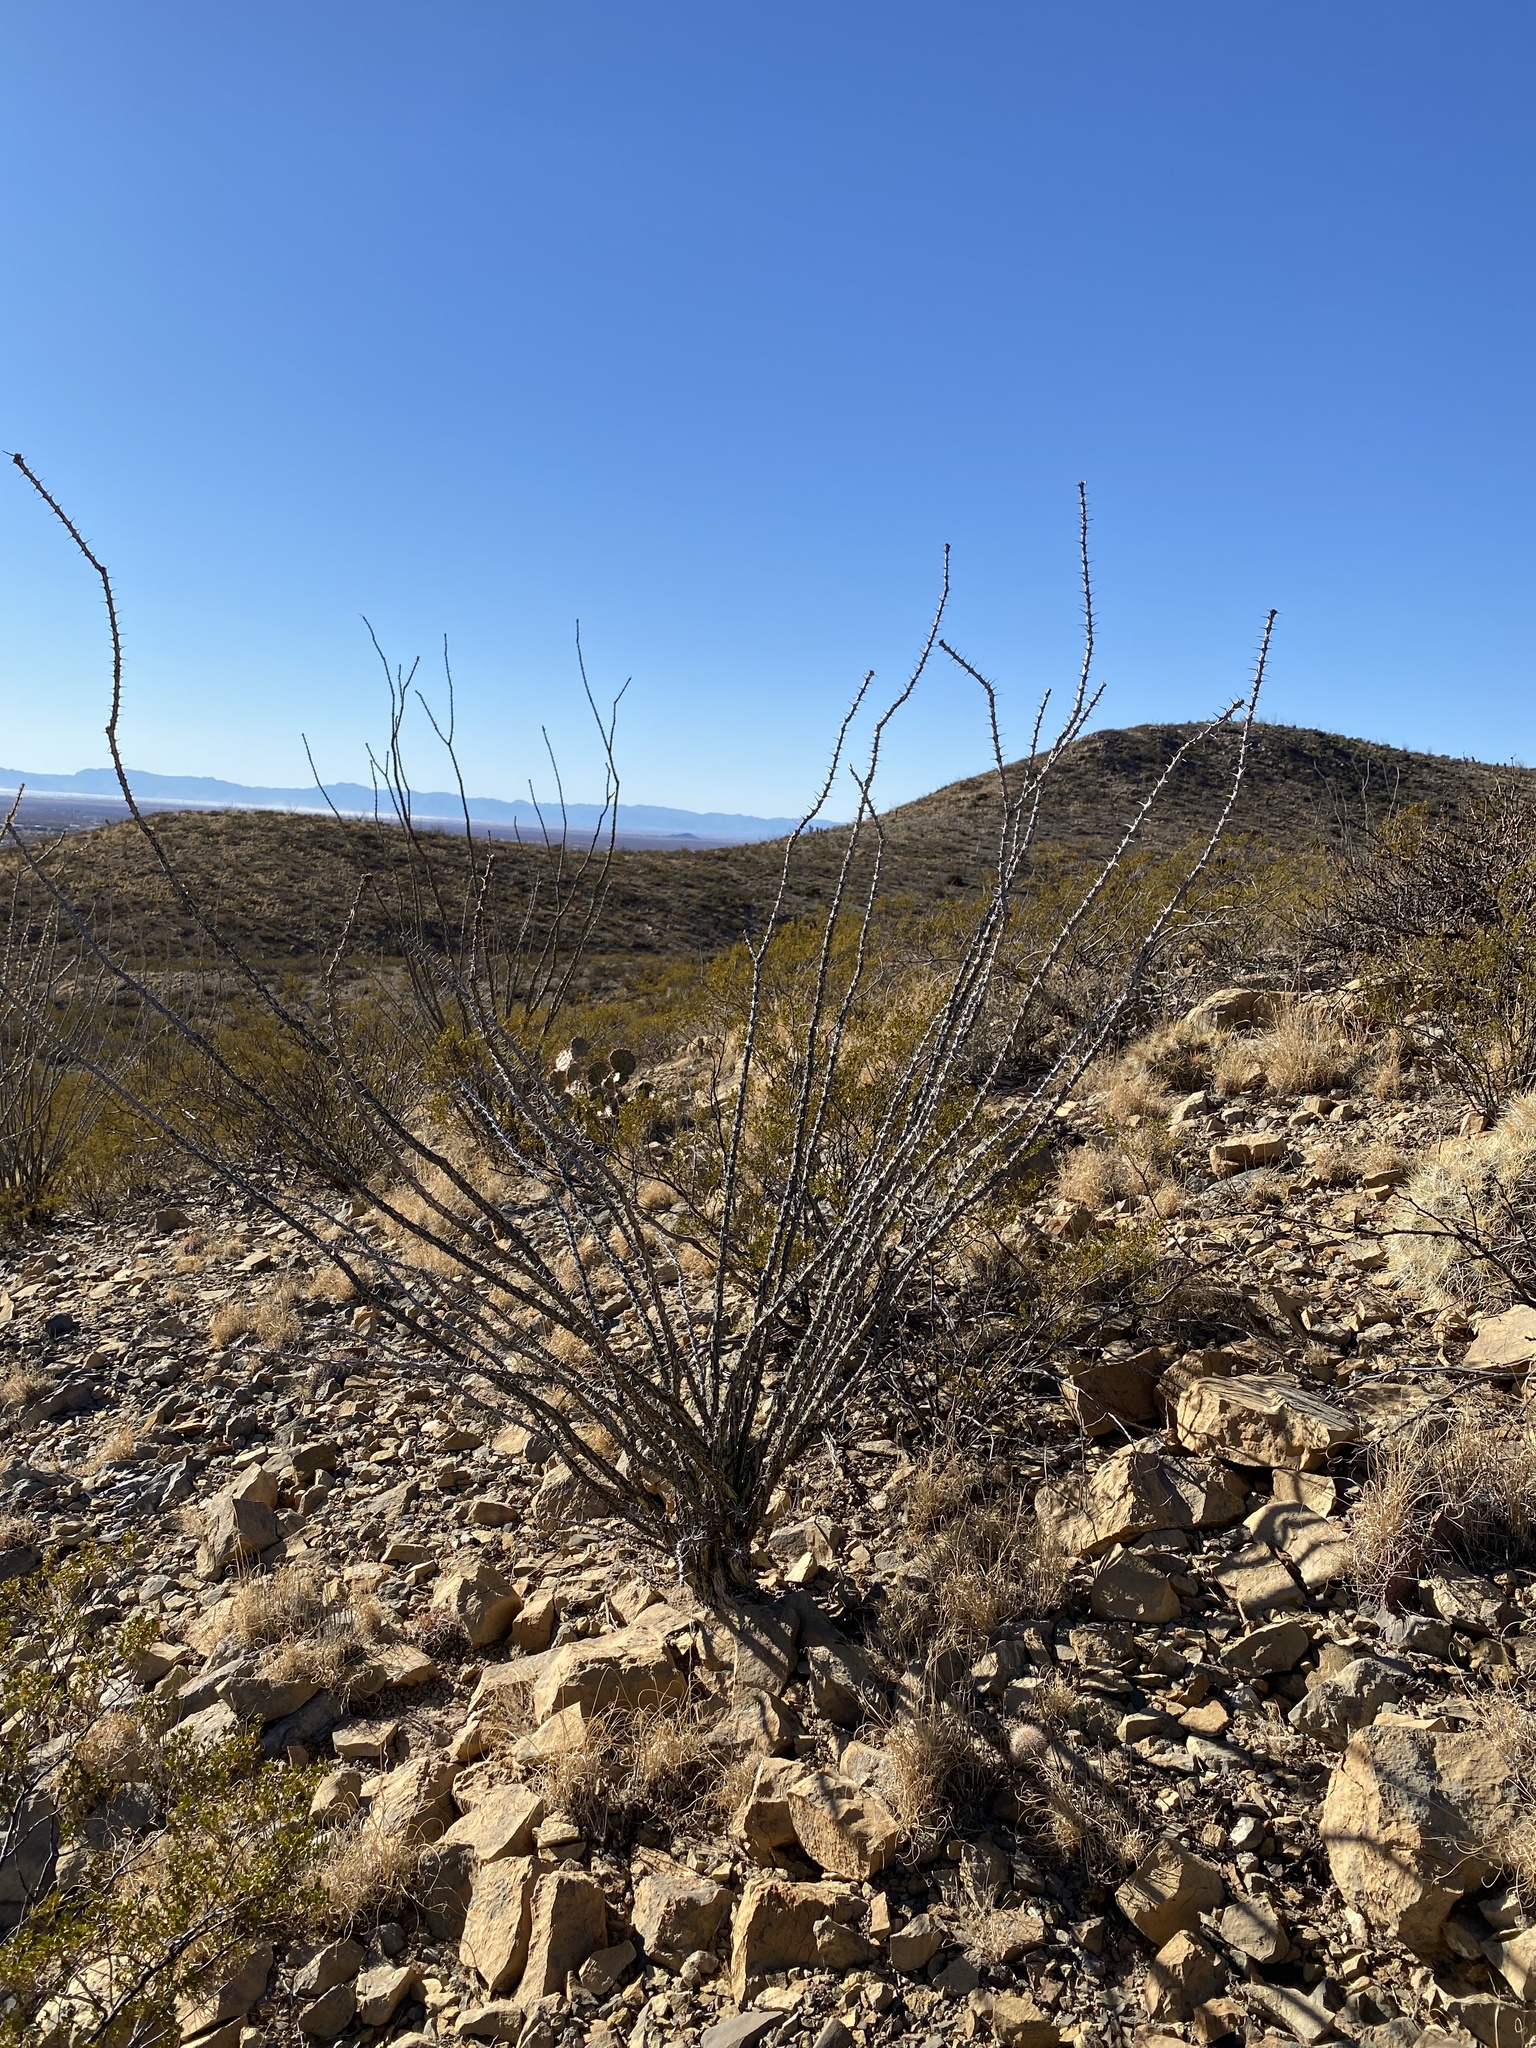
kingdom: Plantae
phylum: Tracheophyta
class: Magnoliopsida
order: Ericales
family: Fouquieriaceae
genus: Fouquieria
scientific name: Fouquieria splendens
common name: Vine-cactus
